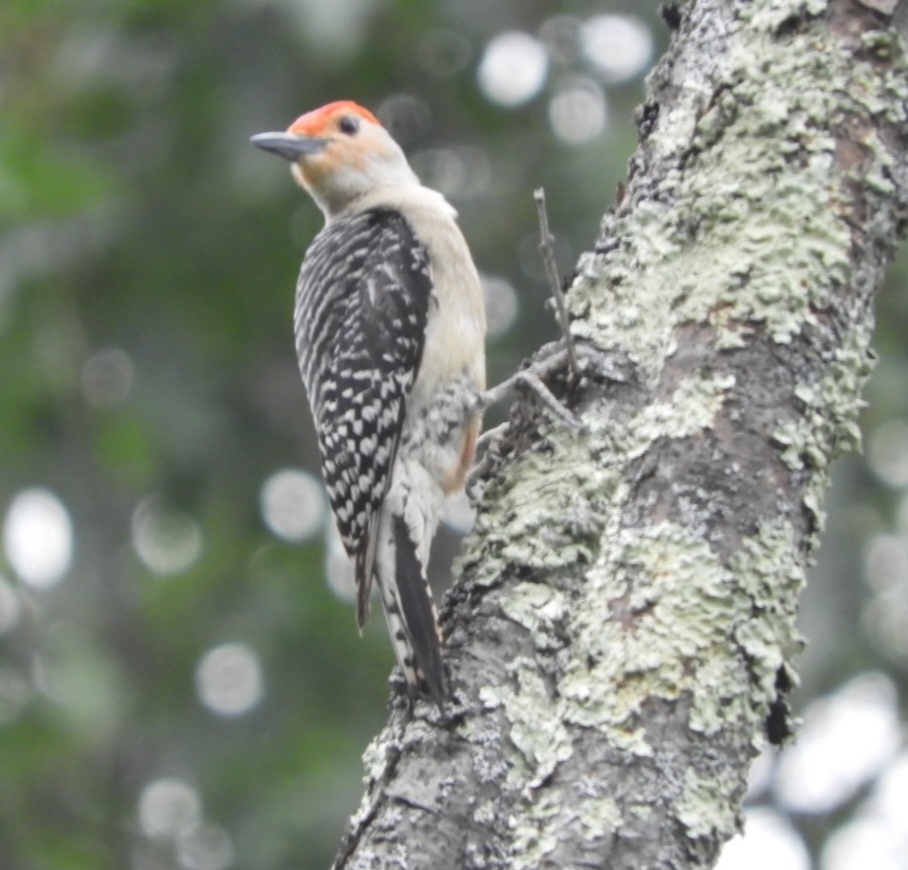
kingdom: Animalia
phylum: Chordata
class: Aves
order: Piciformes
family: Picidae
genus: Melanerpes
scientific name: Melanerpes carolinus
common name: Red-bellied woodpecker
